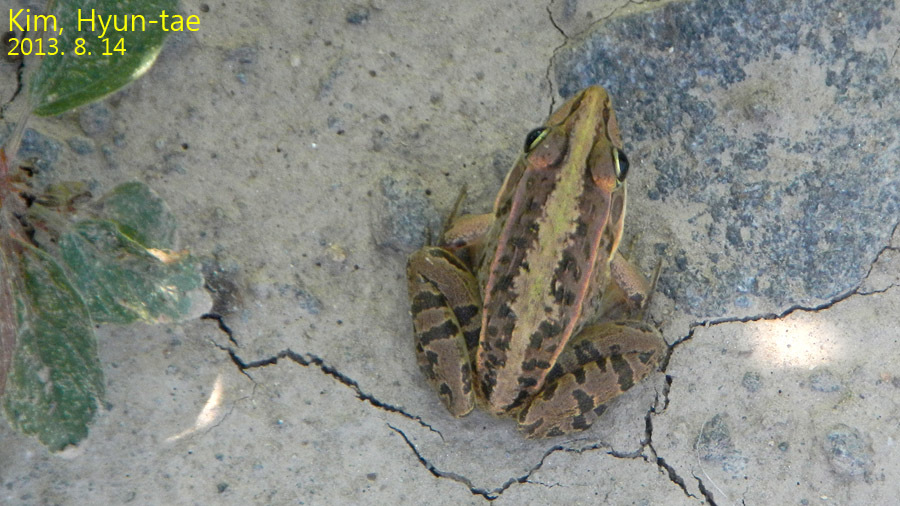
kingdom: Animalia
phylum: Chordata
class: Amphibia
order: Anura
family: Ranidae
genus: Pelophylax
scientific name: Pelophylax nigromaculatus
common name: Black-spotted pond frog
